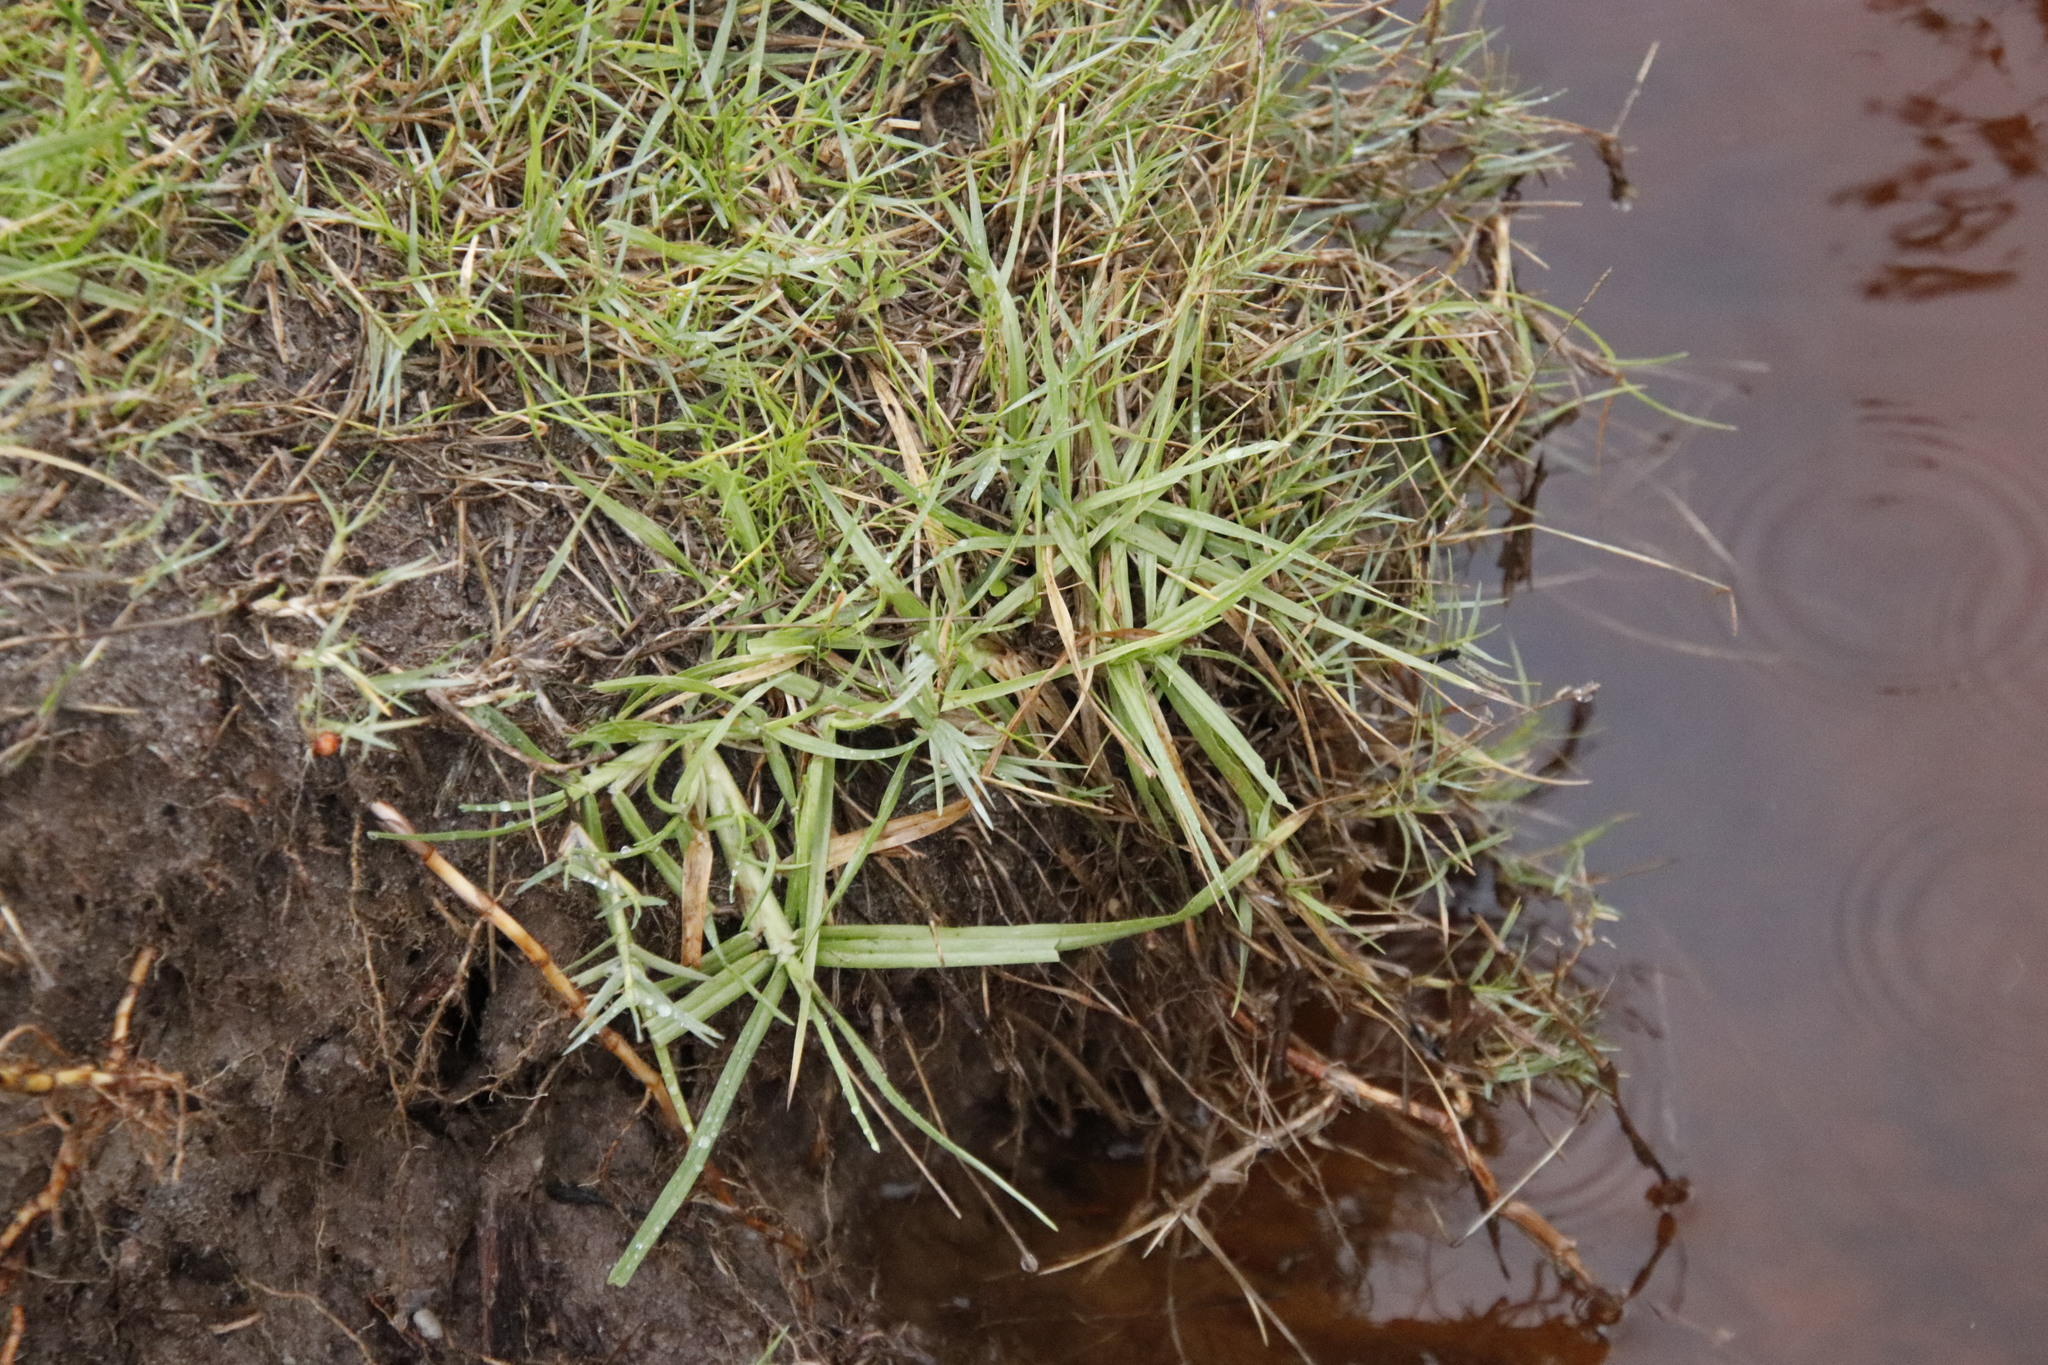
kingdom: Plantae
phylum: Tracheophyta
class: Liliopsida
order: Poales
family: Poaceae
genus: Cenchrus
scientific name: Cenchrus clandestinus
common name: Kikuyugrass
